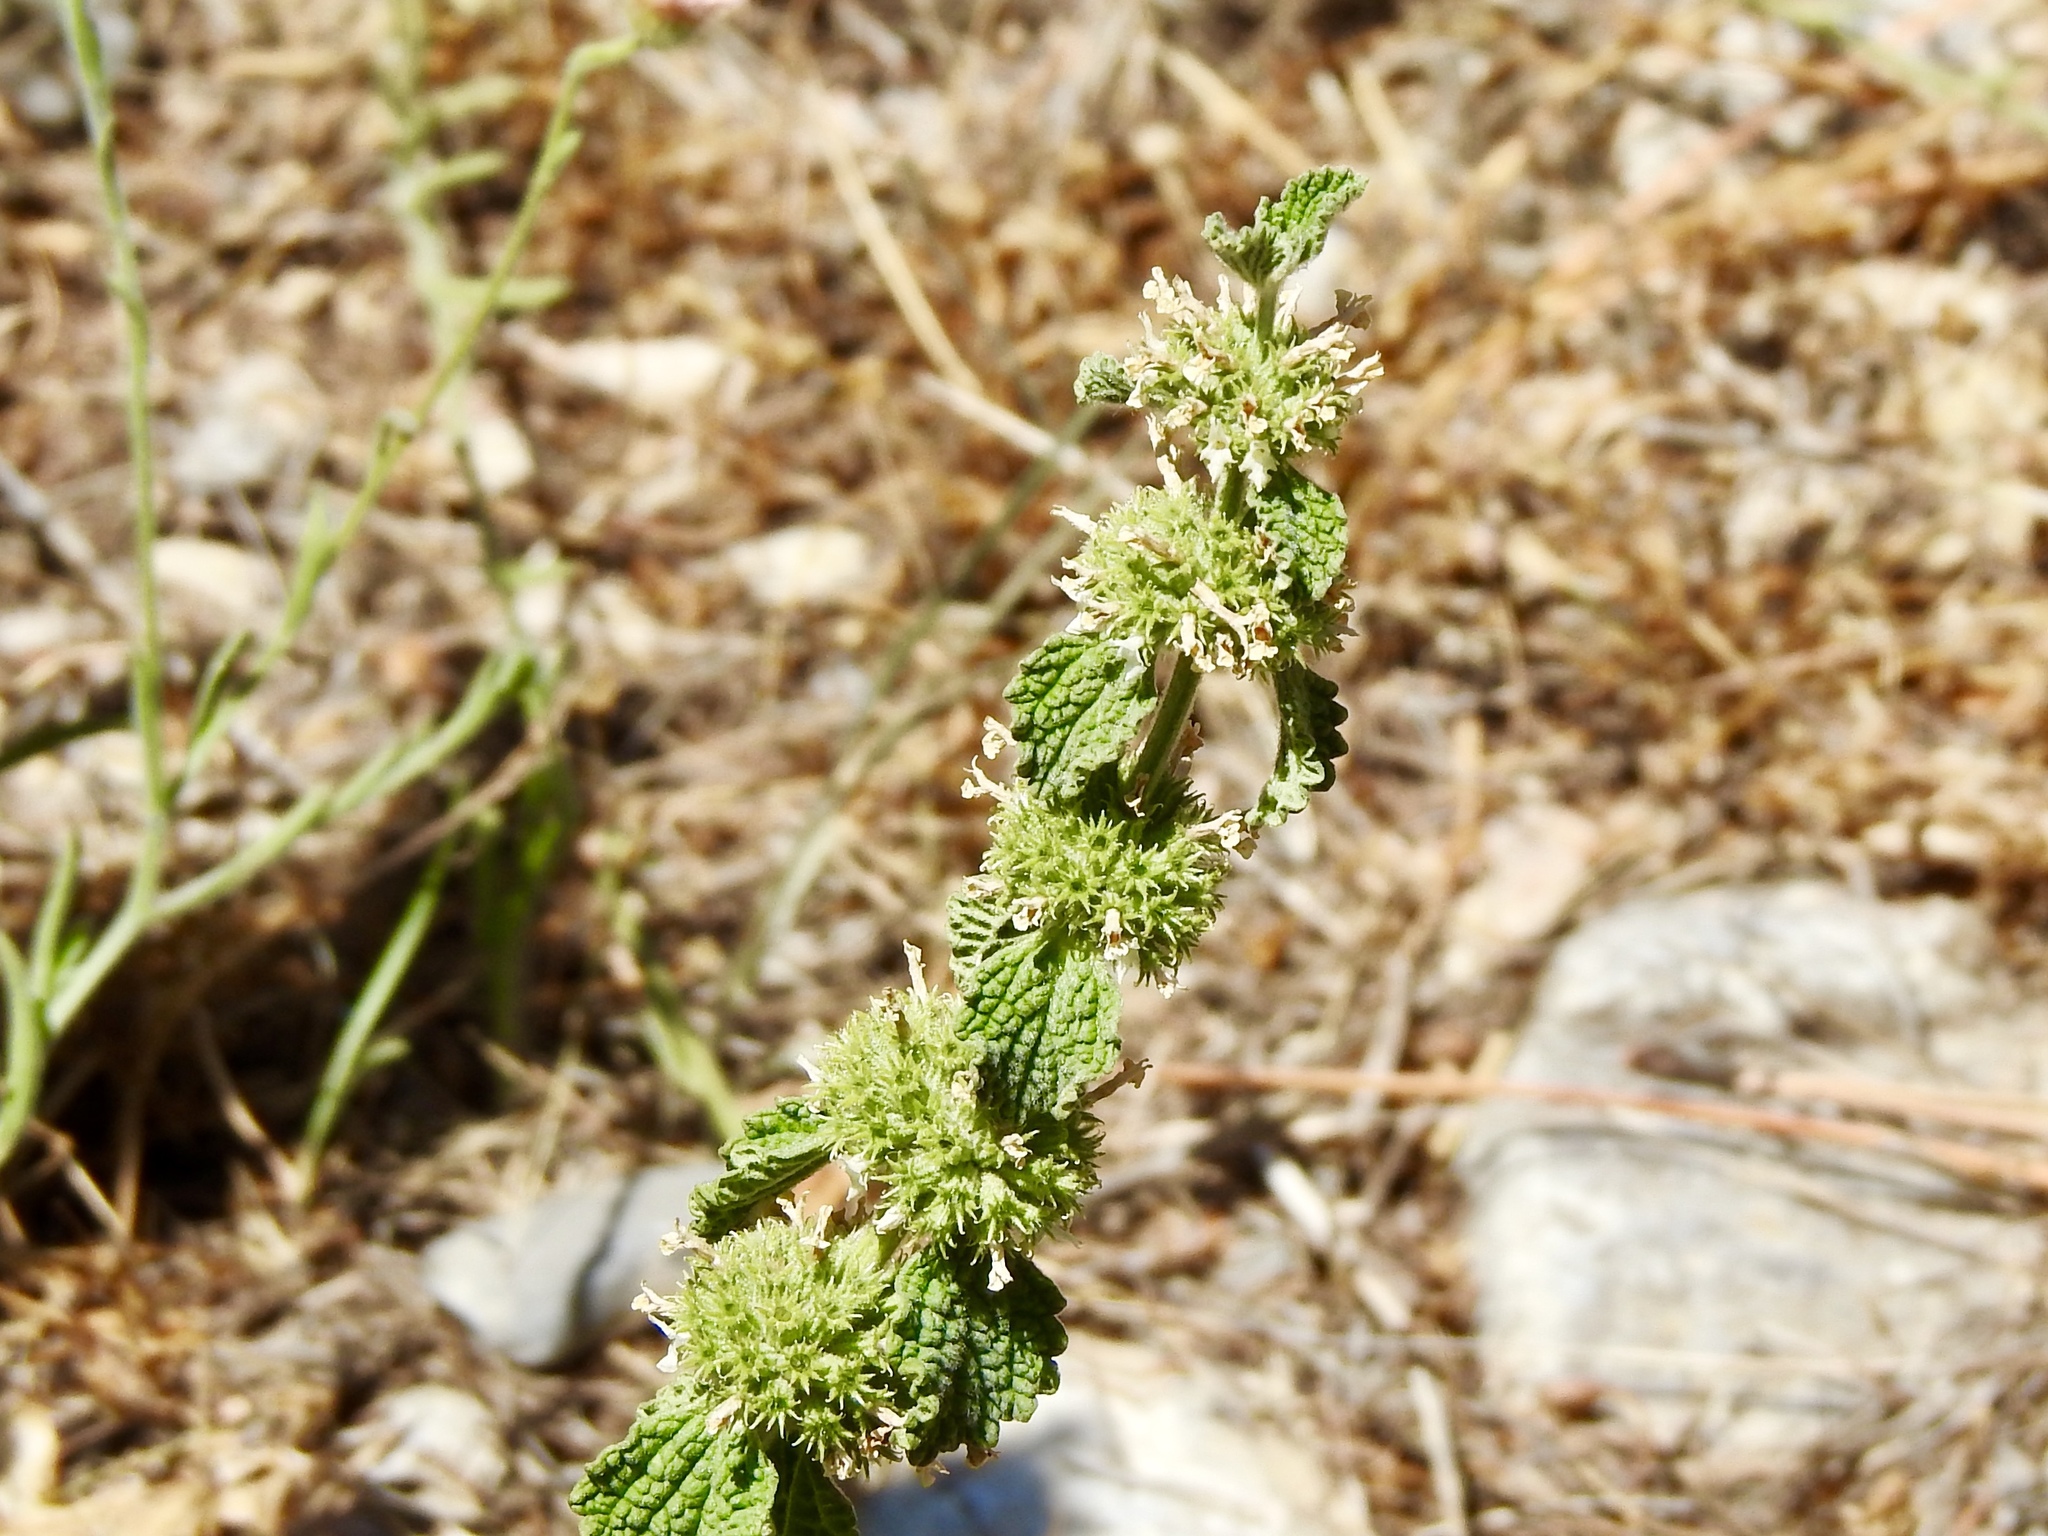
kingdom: Plantae
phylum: Tracheophyta
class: Magnoliopsida
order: Lamiales
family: Lamiaceae
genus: Marrubium
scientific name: Marrubium vulgare
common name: Horehound
